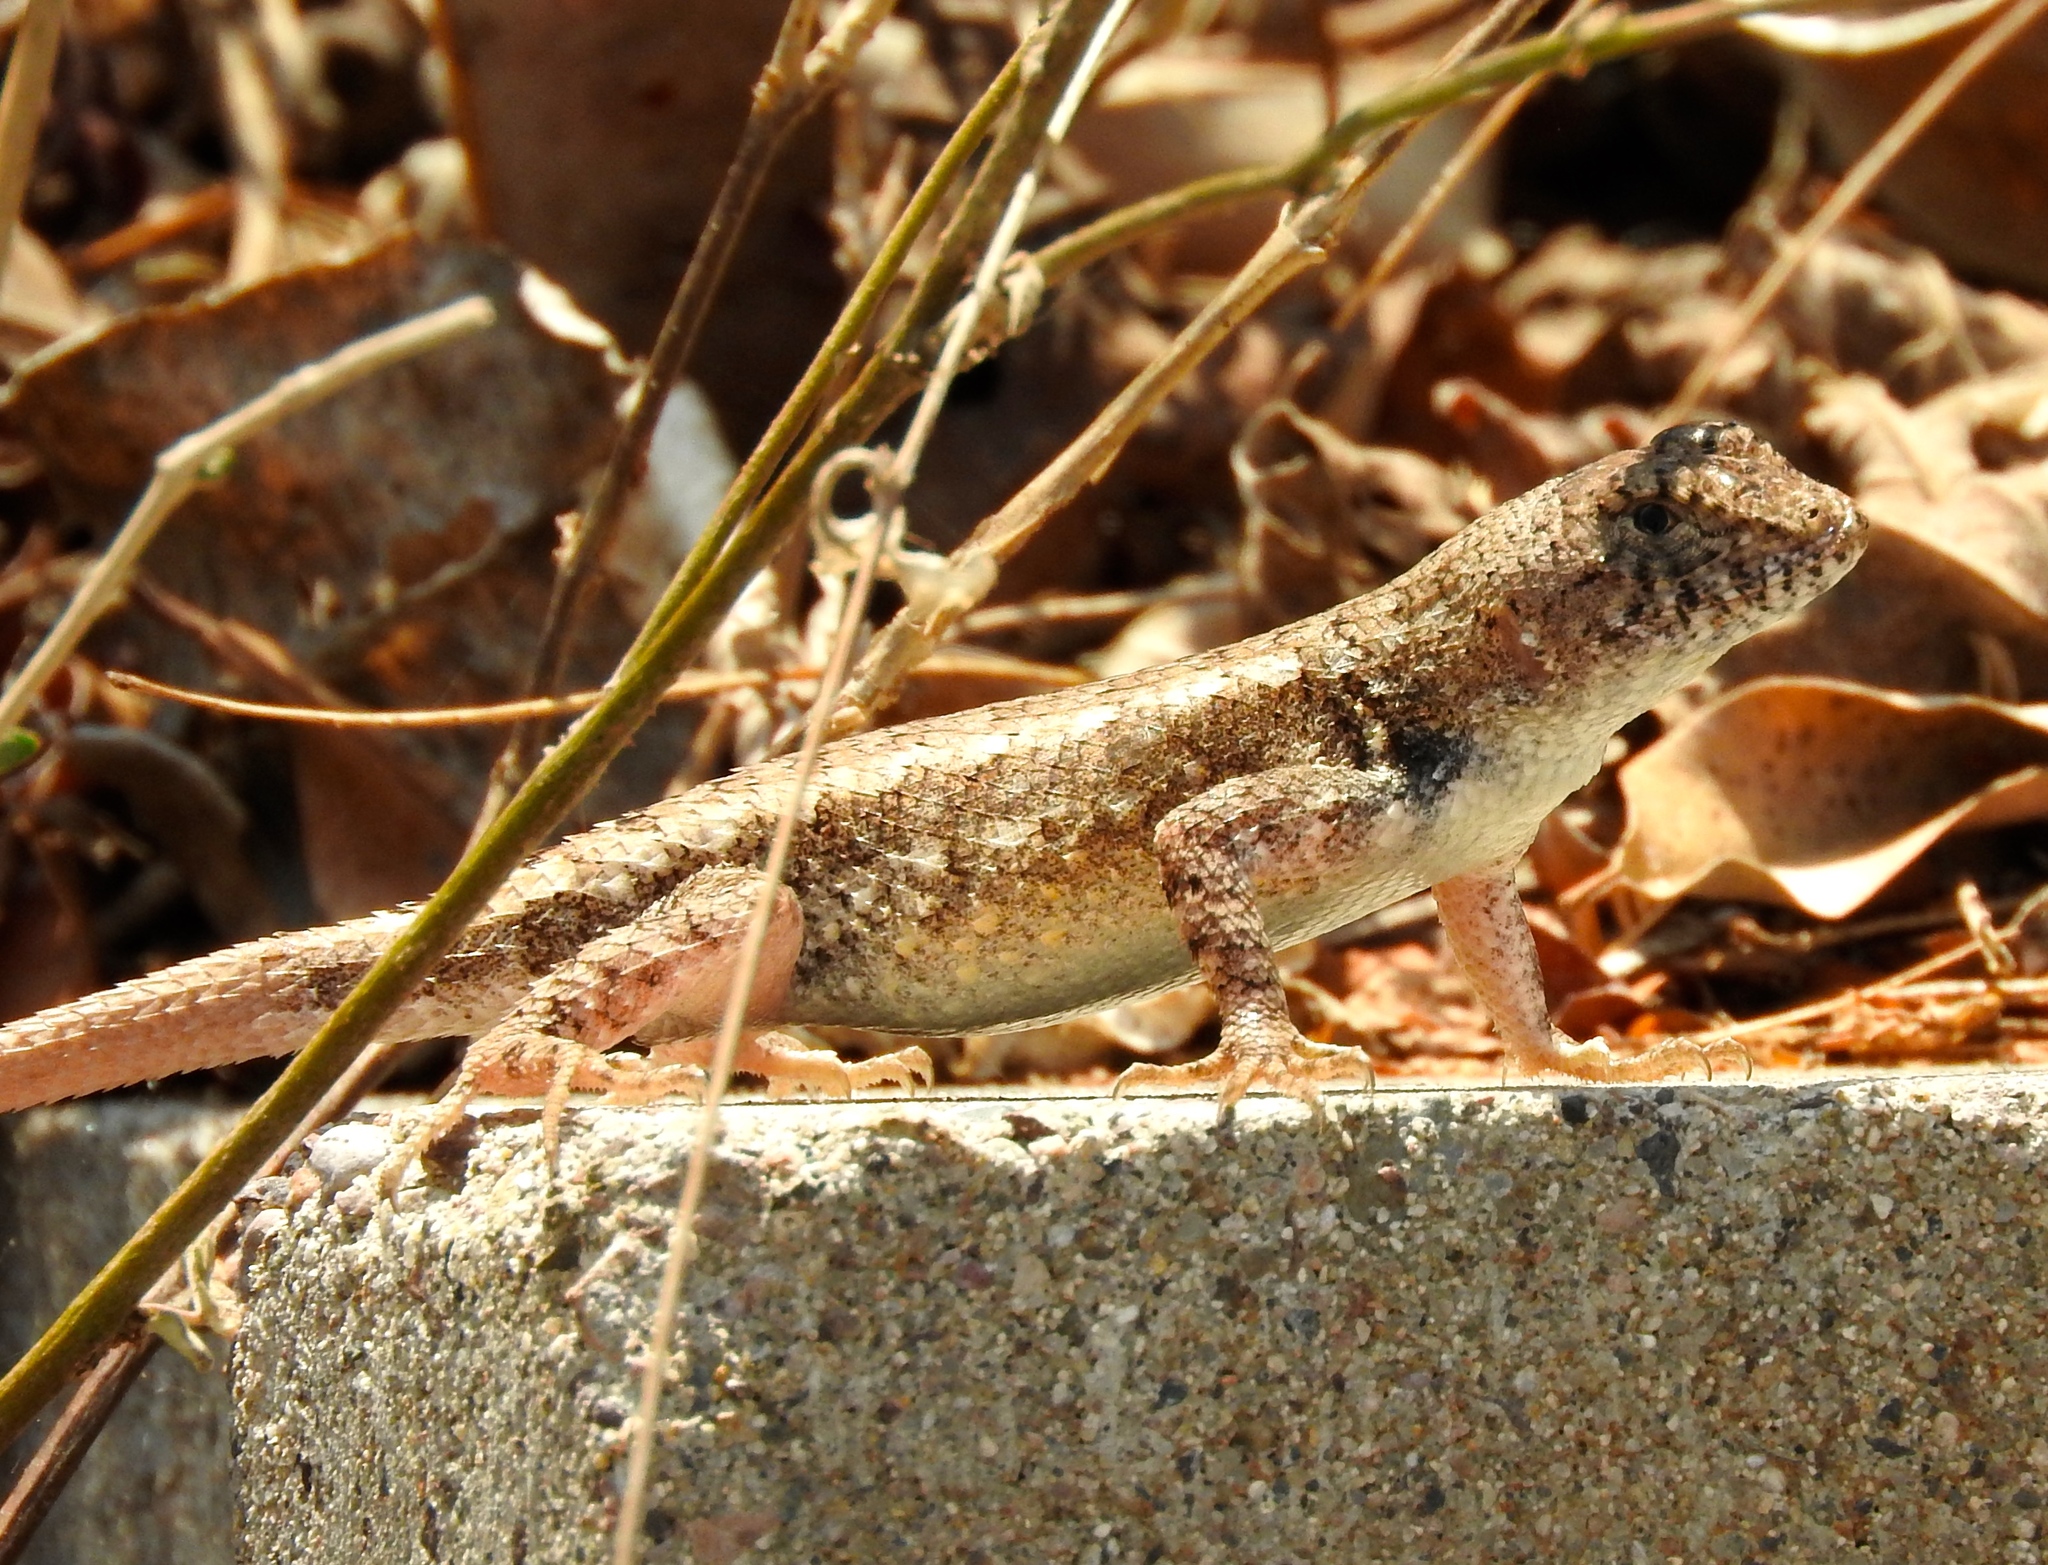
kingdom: Animalia
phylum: Chordata
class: Squamata
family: Phrynosomatidae
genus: Sceloporus
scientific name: Sceloporus nelsoni
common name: Nelson's spiny lizard
